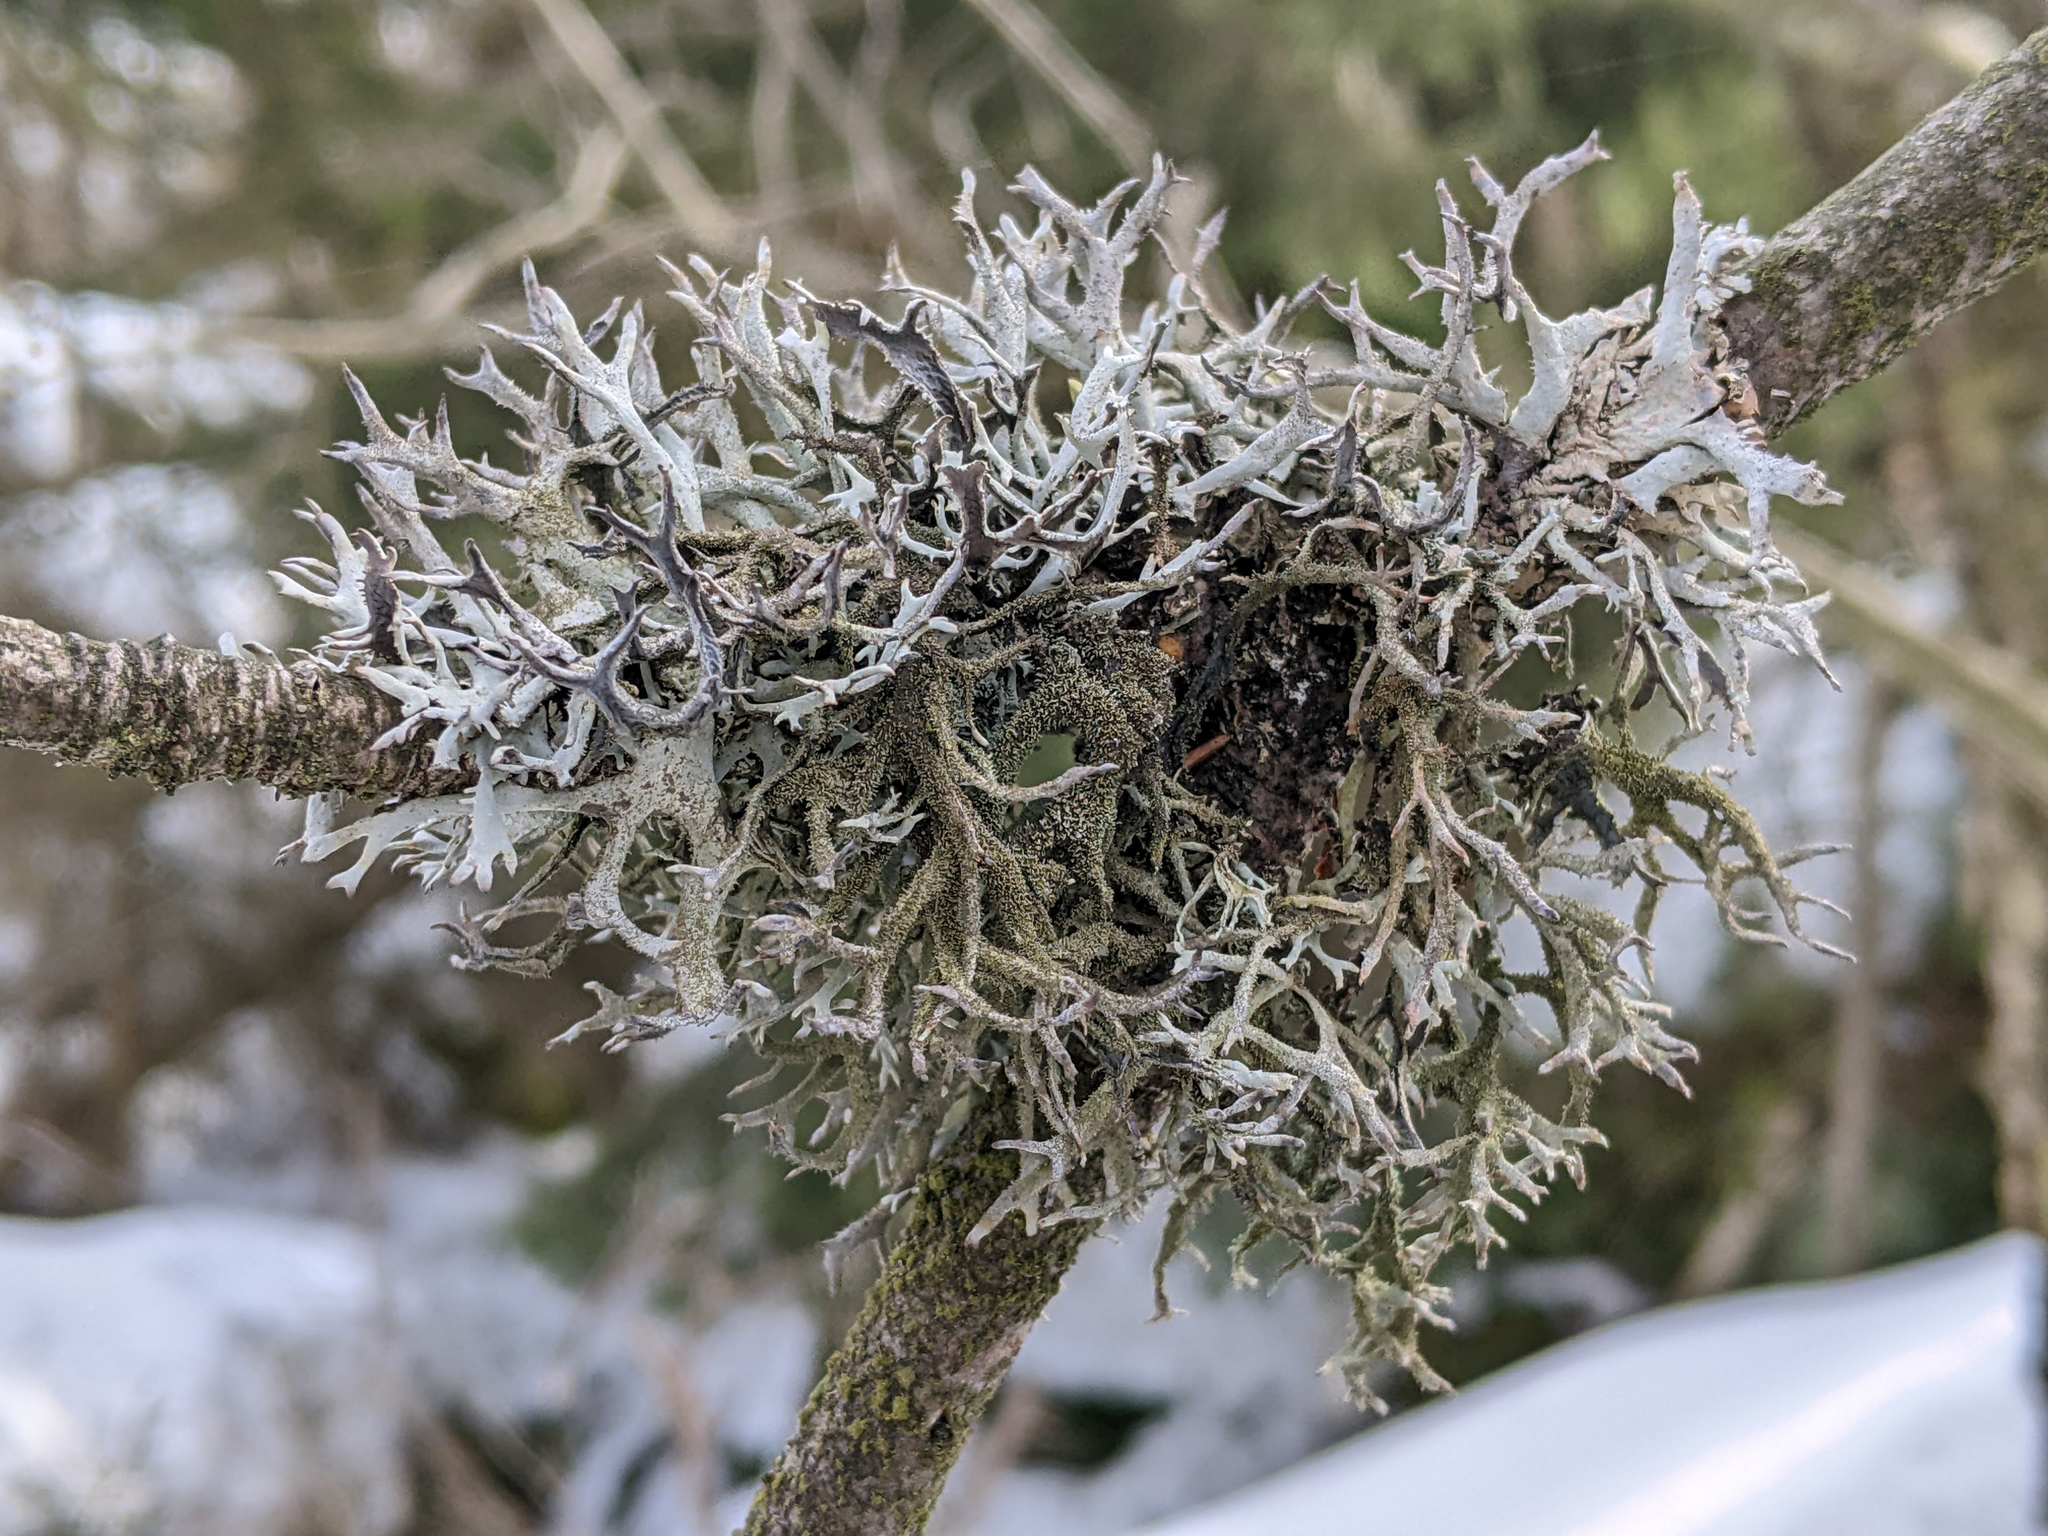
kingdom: Fungi
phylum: Ascomycota
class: Lecanoromycetes
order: Lecanorales
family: Parmeliaceae
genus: Pseudevernia
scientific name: Pseudevernia furfuracea
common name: Tree moss
